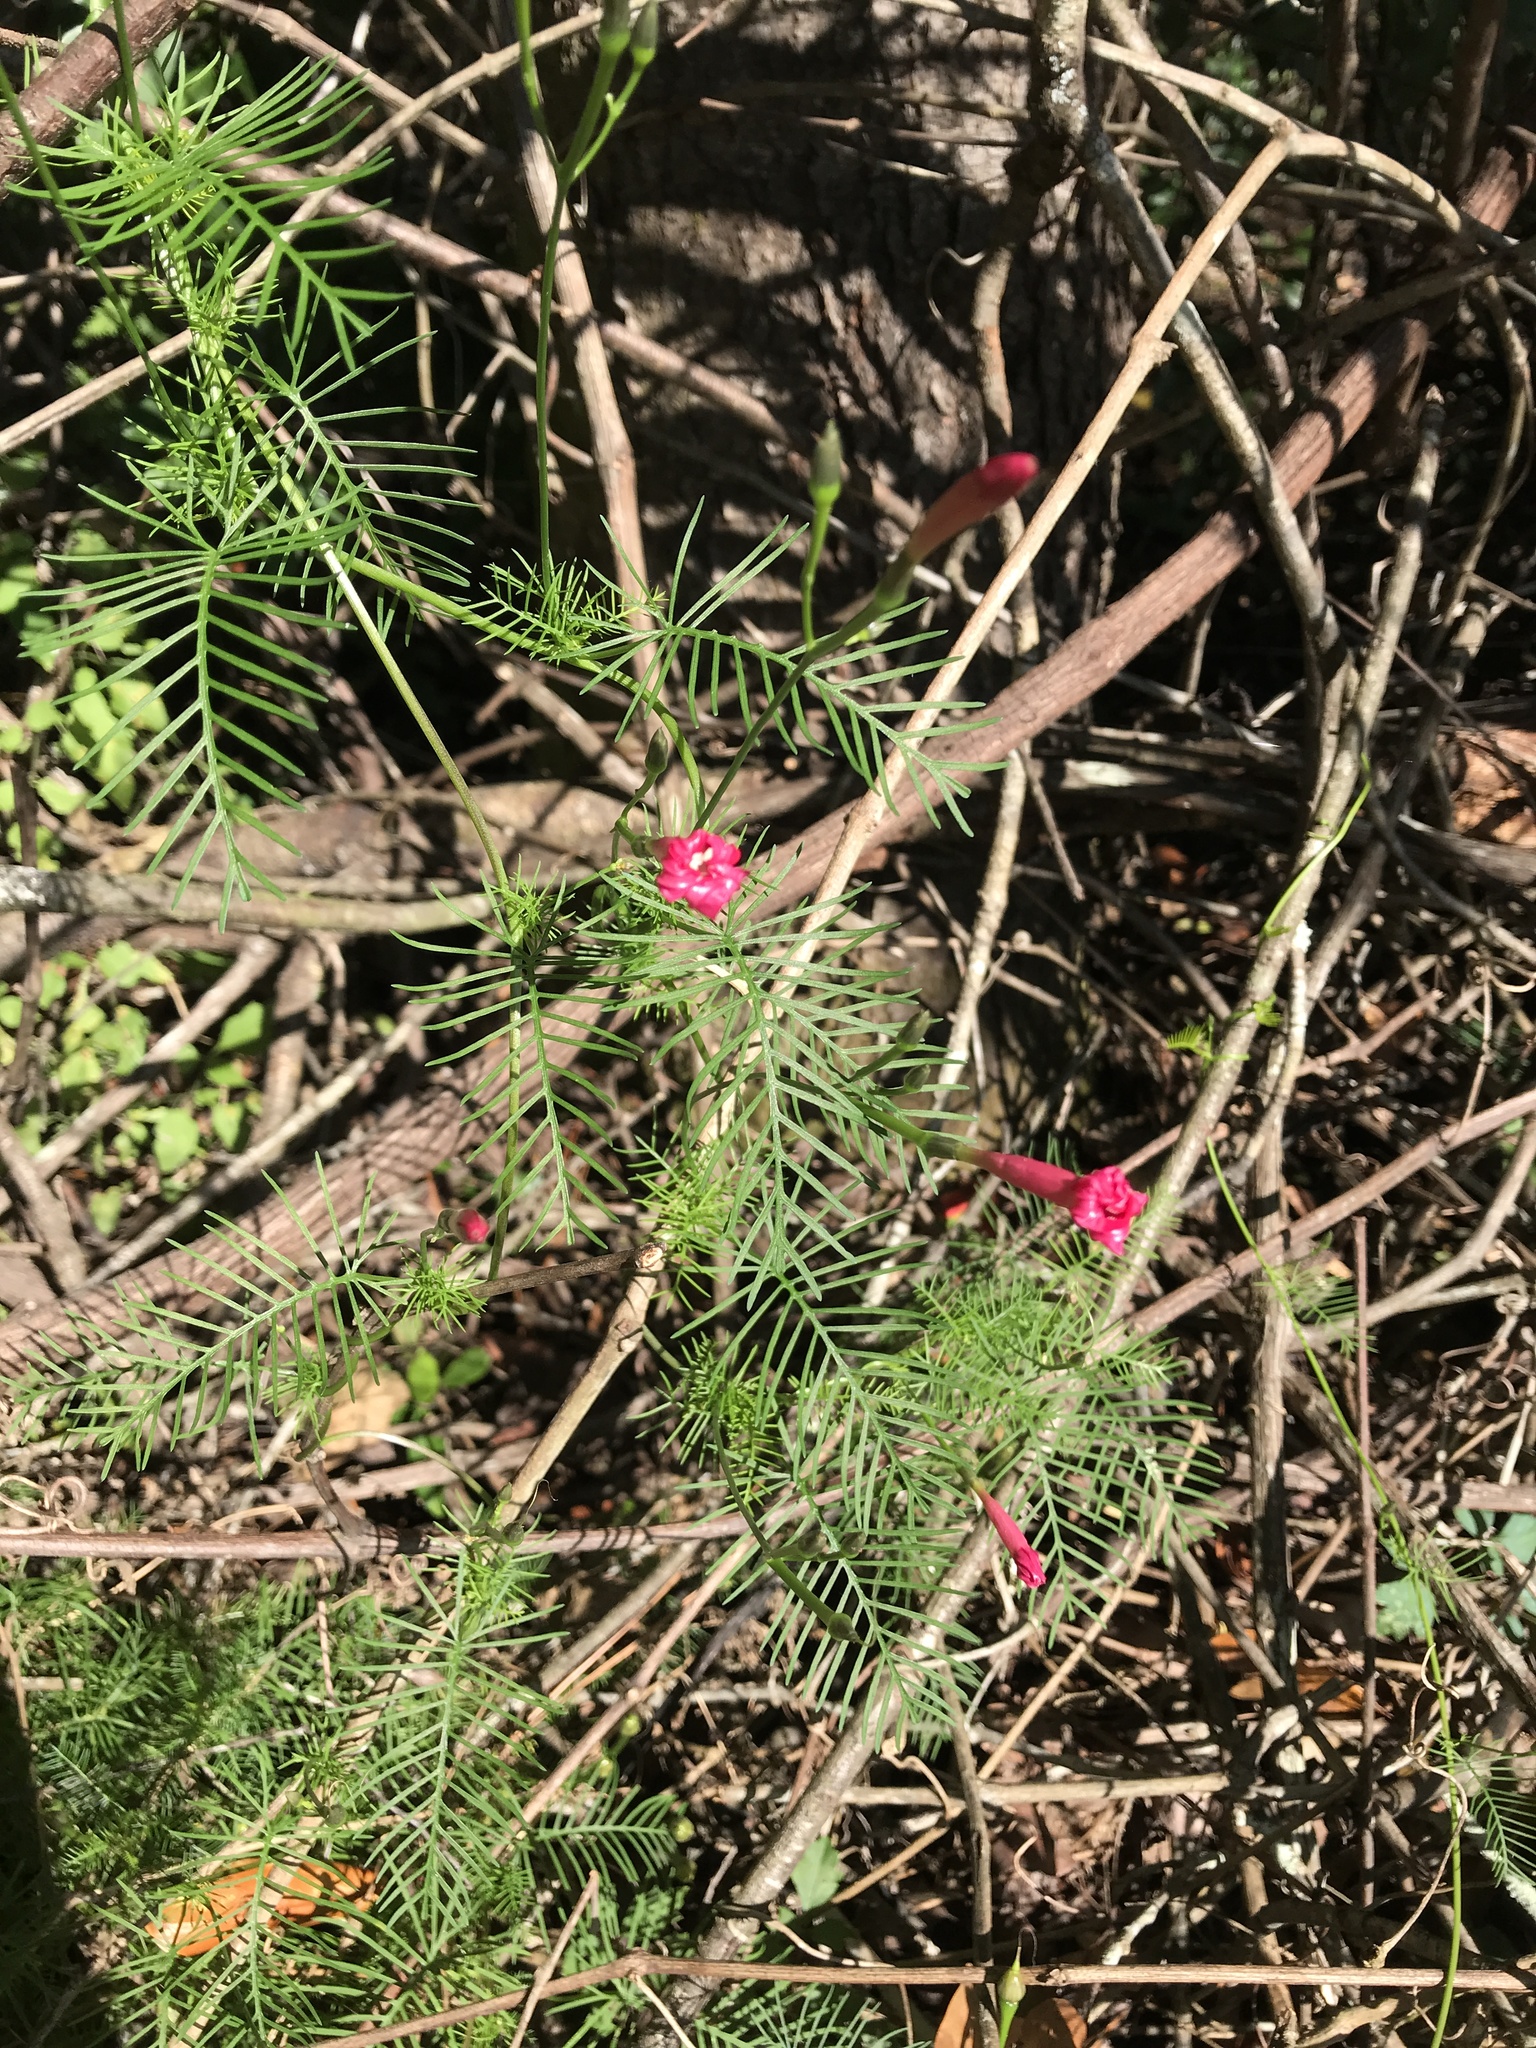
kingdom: Plantae
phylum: Tracheophyta
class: Magnoliopsida
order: Solanales
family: Convolvulaceae
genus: Ipomoea
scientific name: Ipomoea quamoclit
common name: Cypress vine
